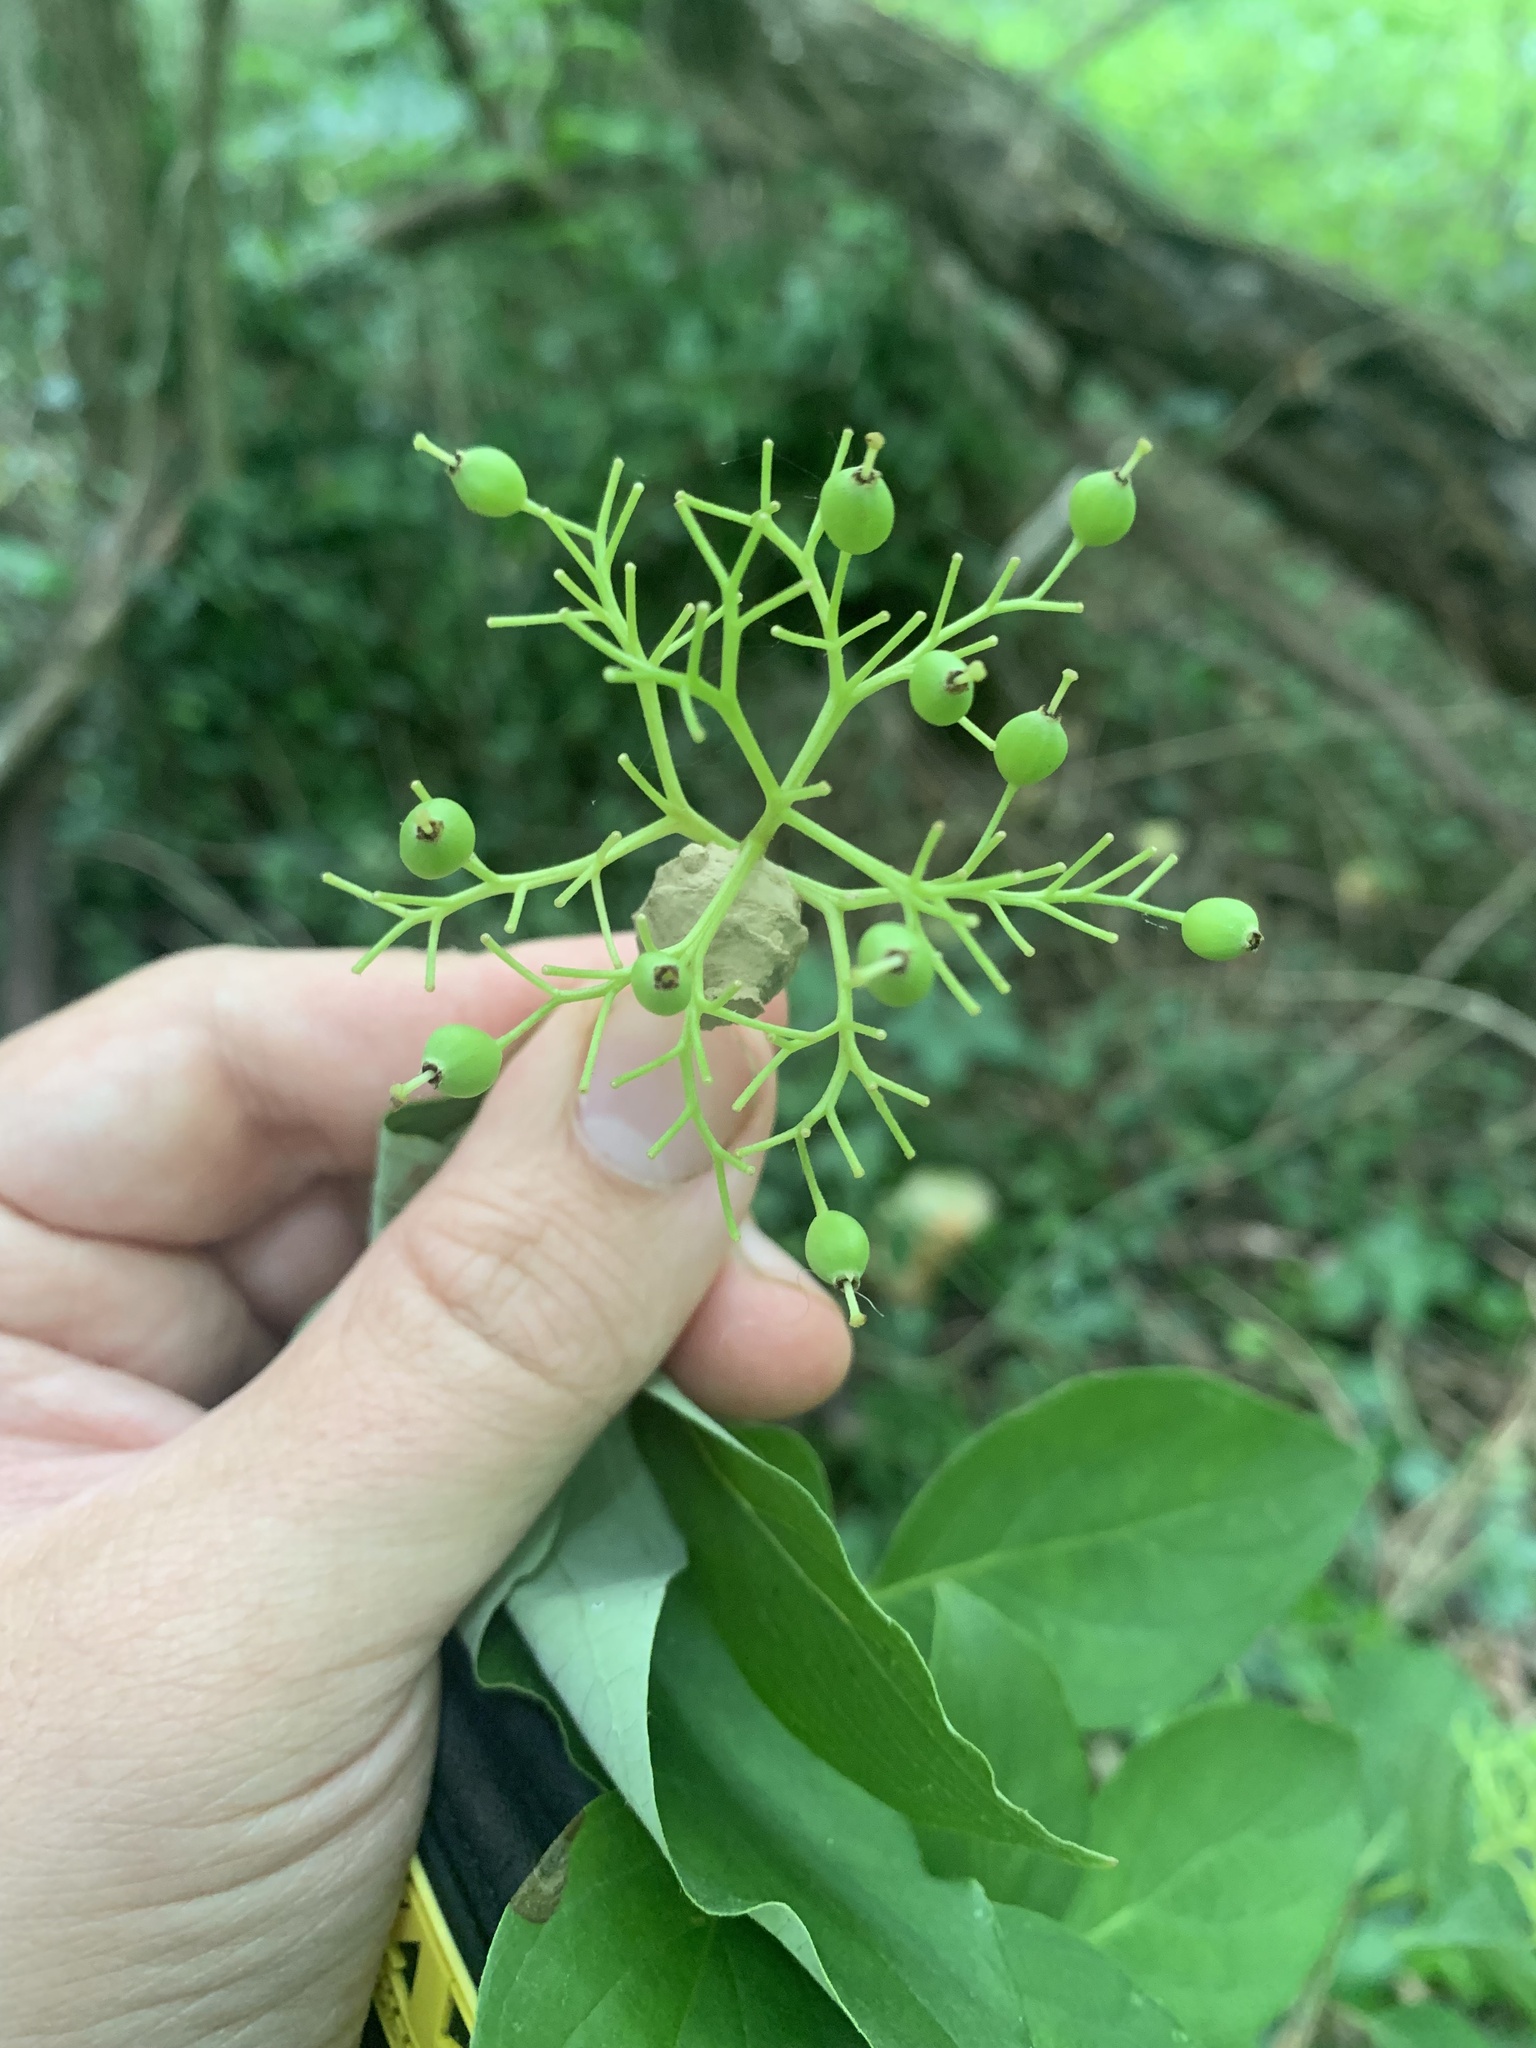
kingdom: Animalia
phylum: Arthropoda
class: Insecta
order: Hymenoptera
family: Vespidae
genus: Eumenes
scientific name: Eumenes fraternus
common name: Fraternal potter wasp
